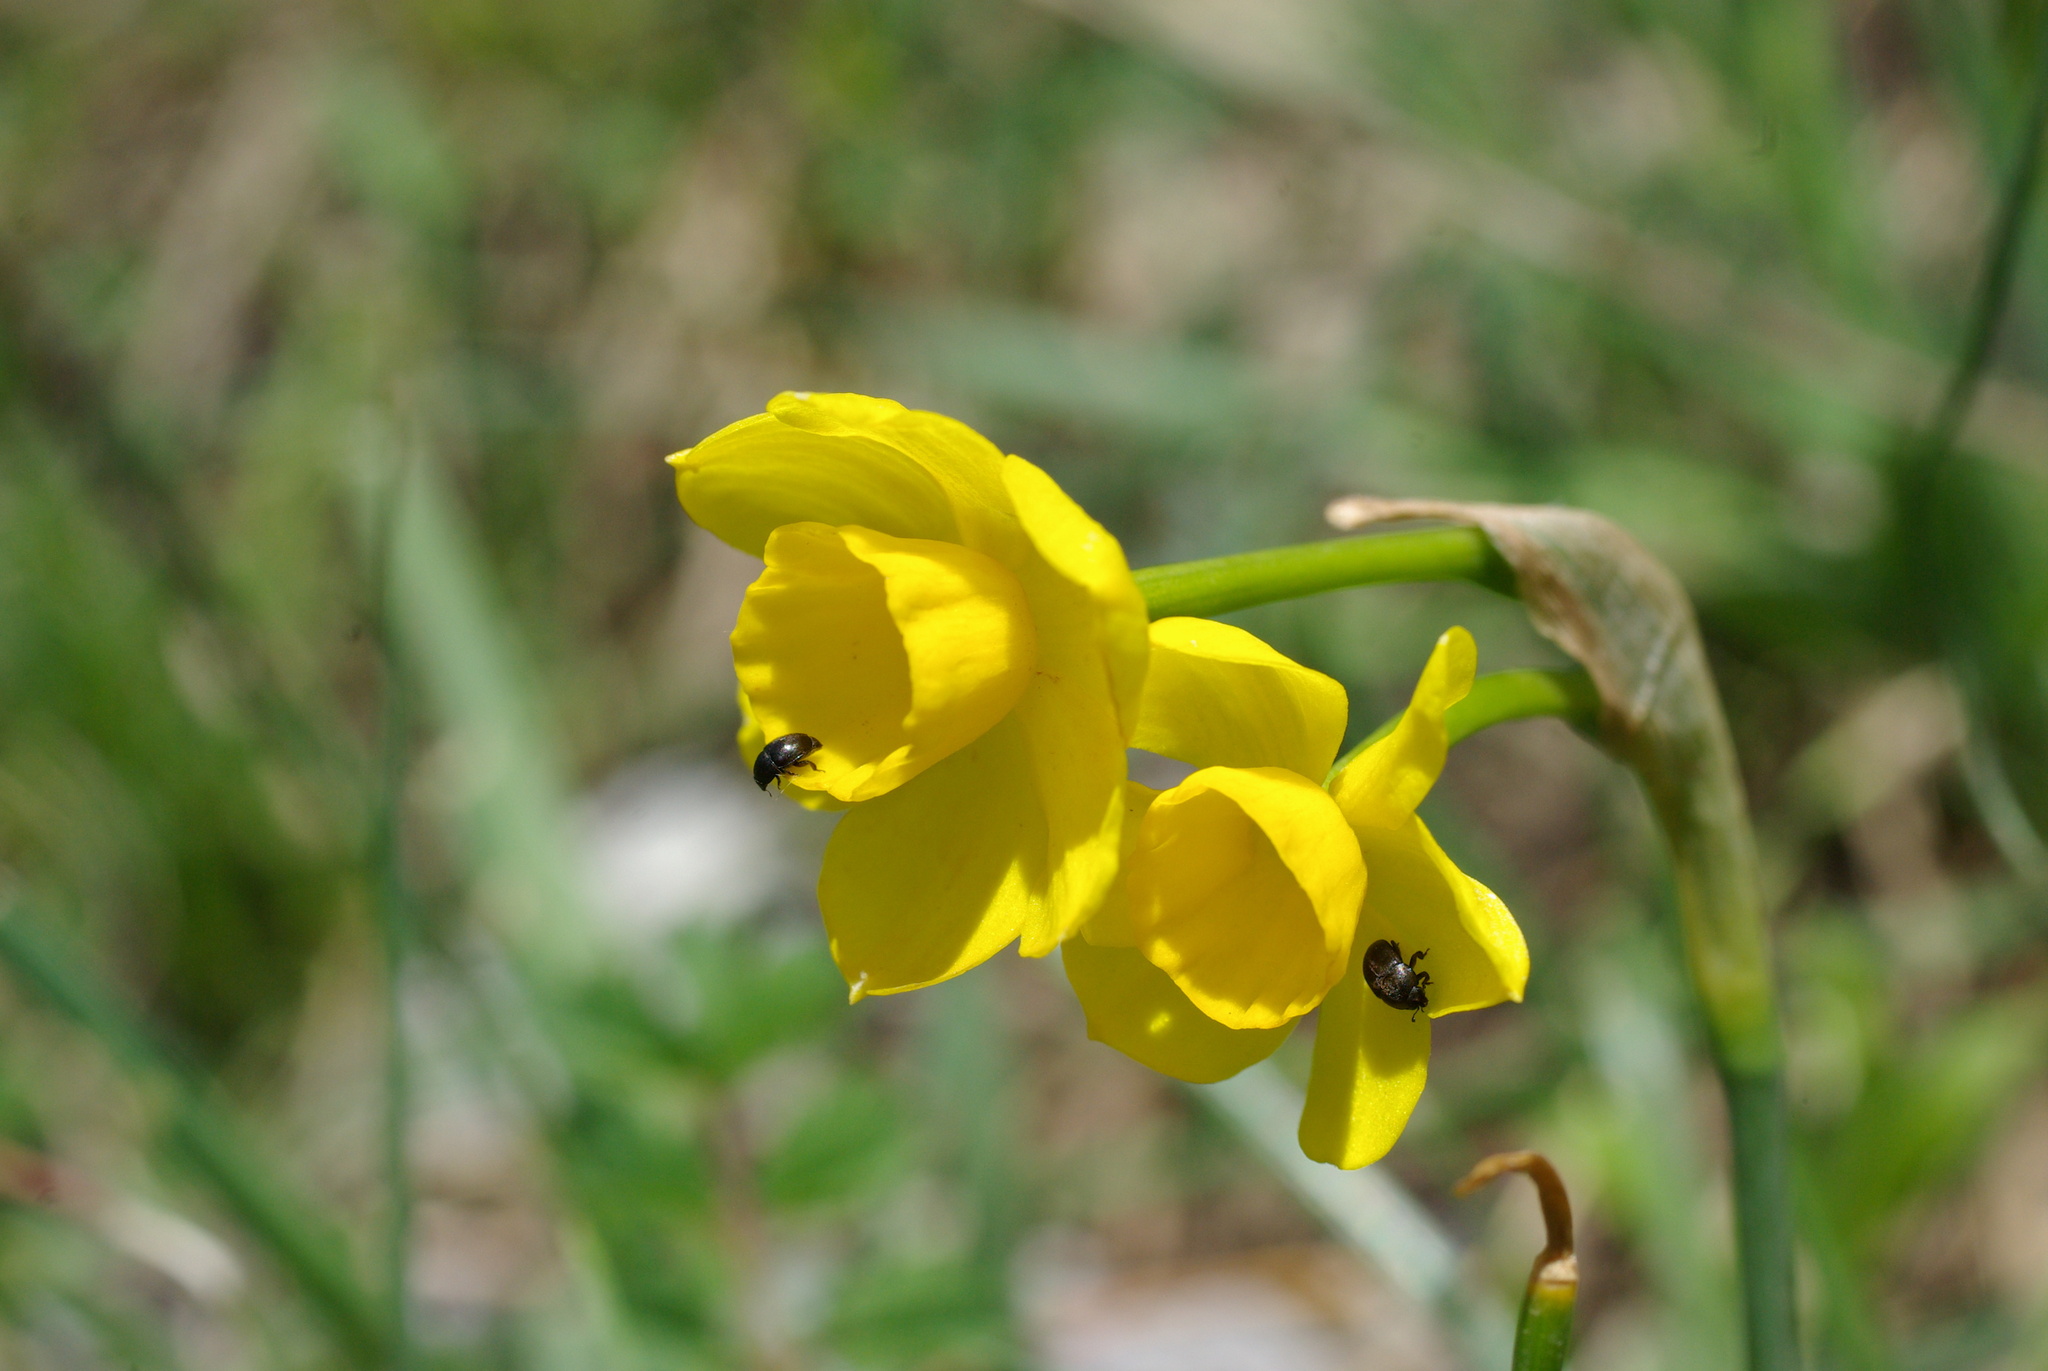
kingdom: Plantae
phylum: Tracheophyta
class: Liliopsida
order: Asparagales
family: Amaryllidaceae
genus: Narcissus
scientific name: Narcissus assoanus
